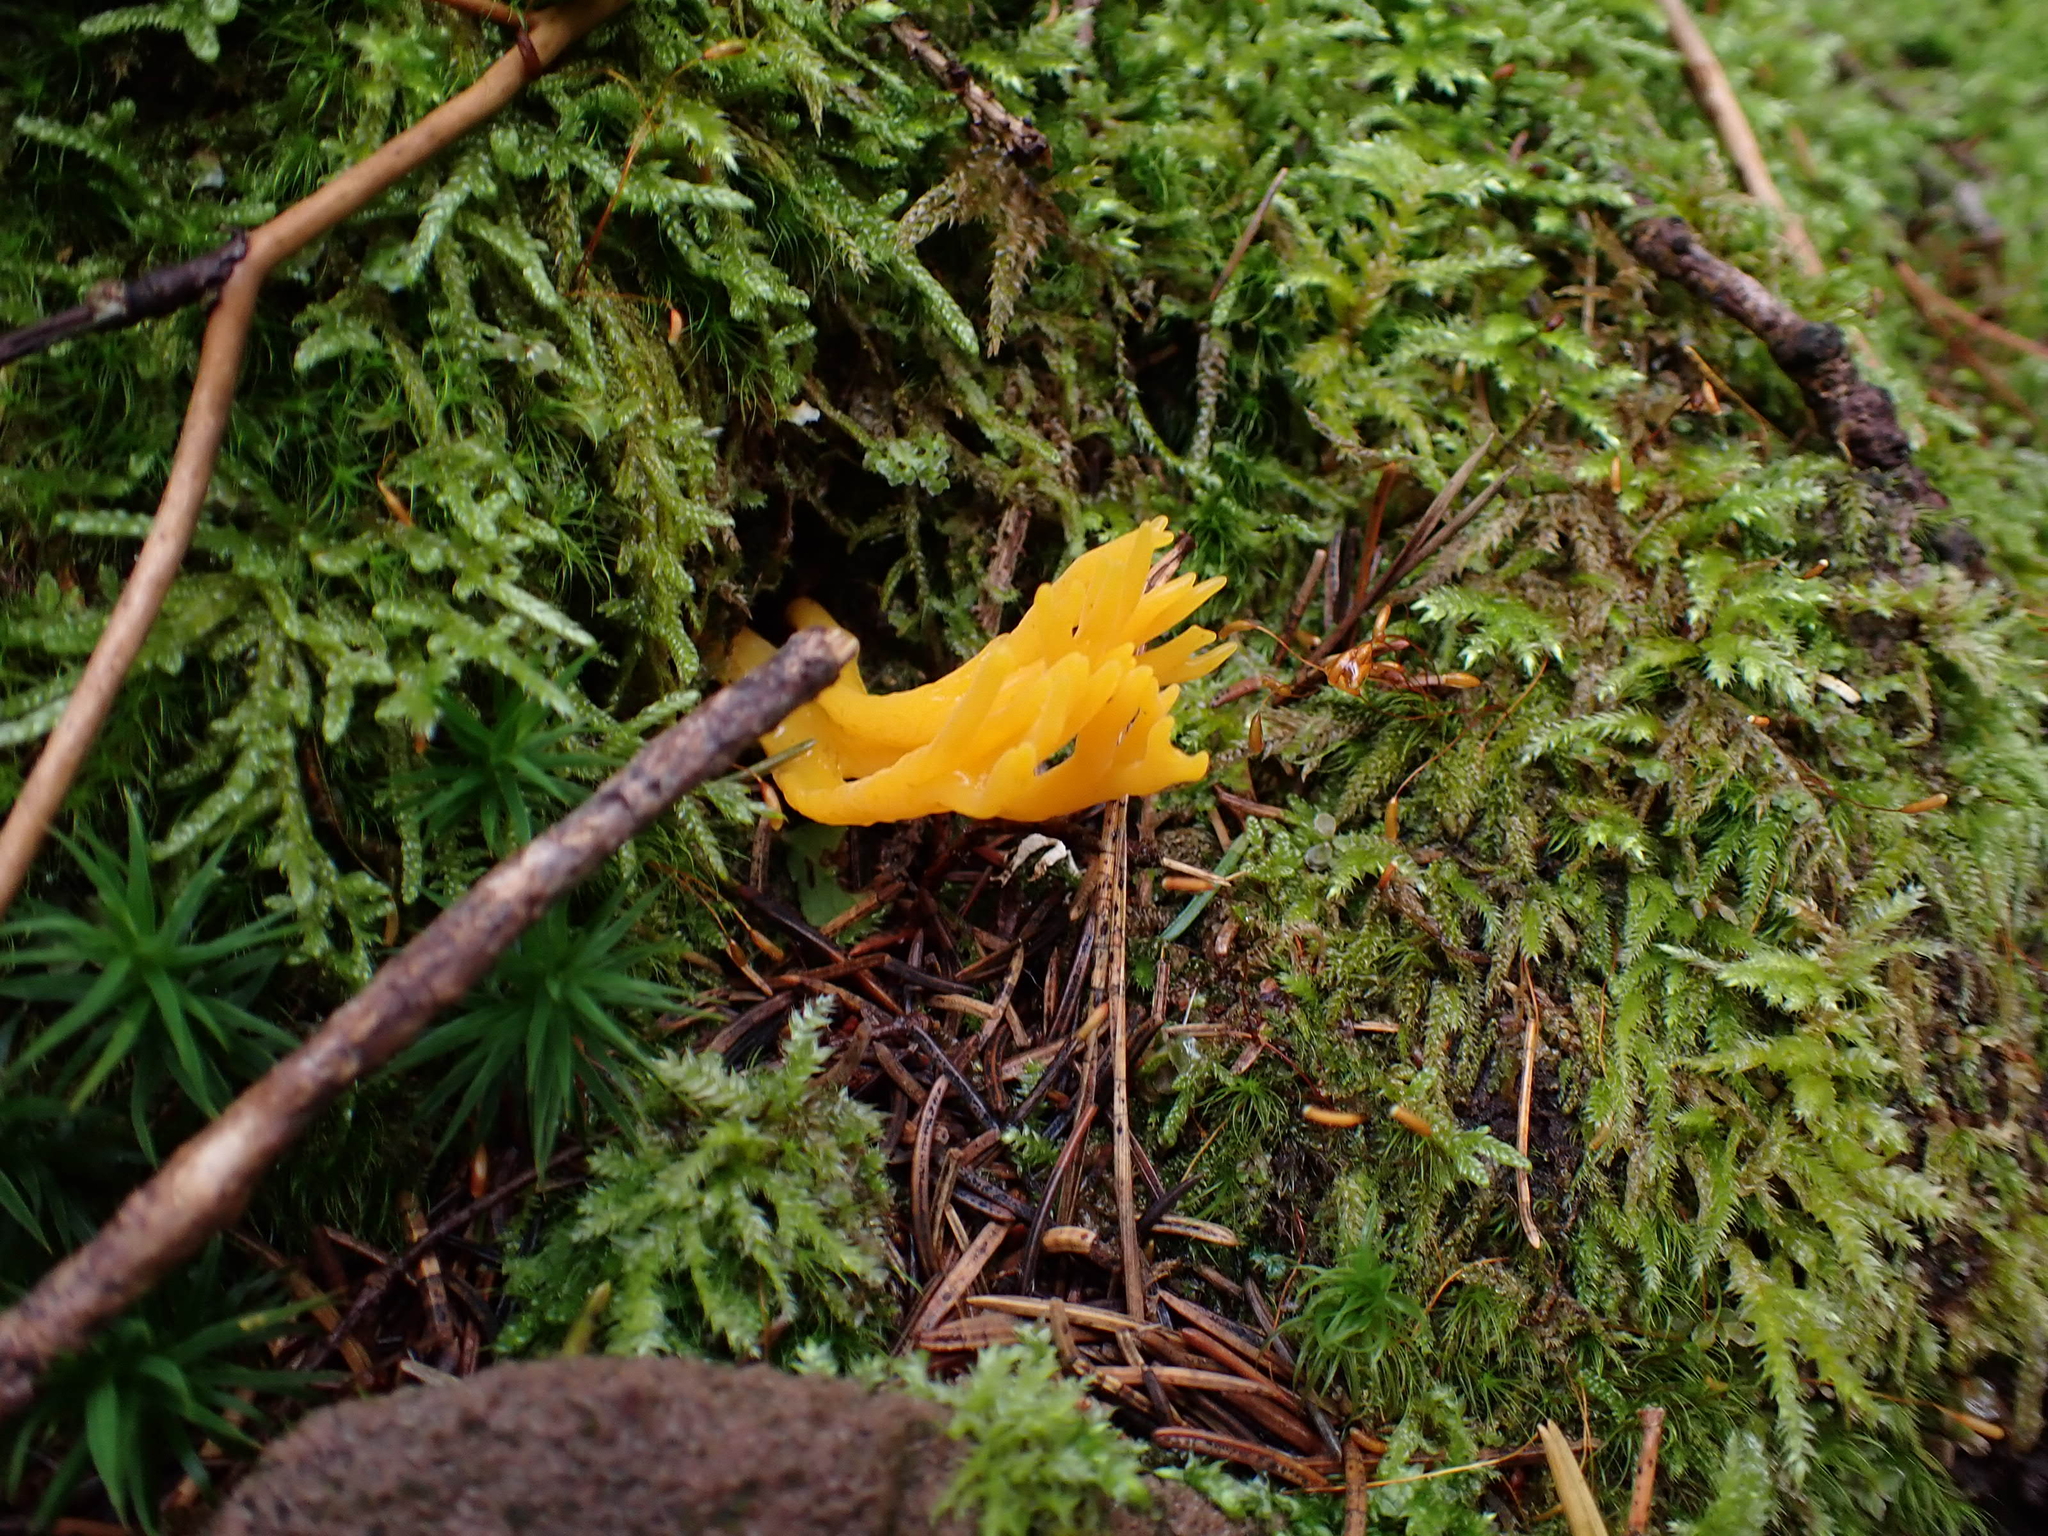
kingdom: Fungi
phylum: Basidiomycota
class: Dacrymycetes
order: Dacrymycetales
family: Dacrymycetaceae
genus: Calocera
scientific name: Calocera viscosa
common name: Yellow stagshorn
